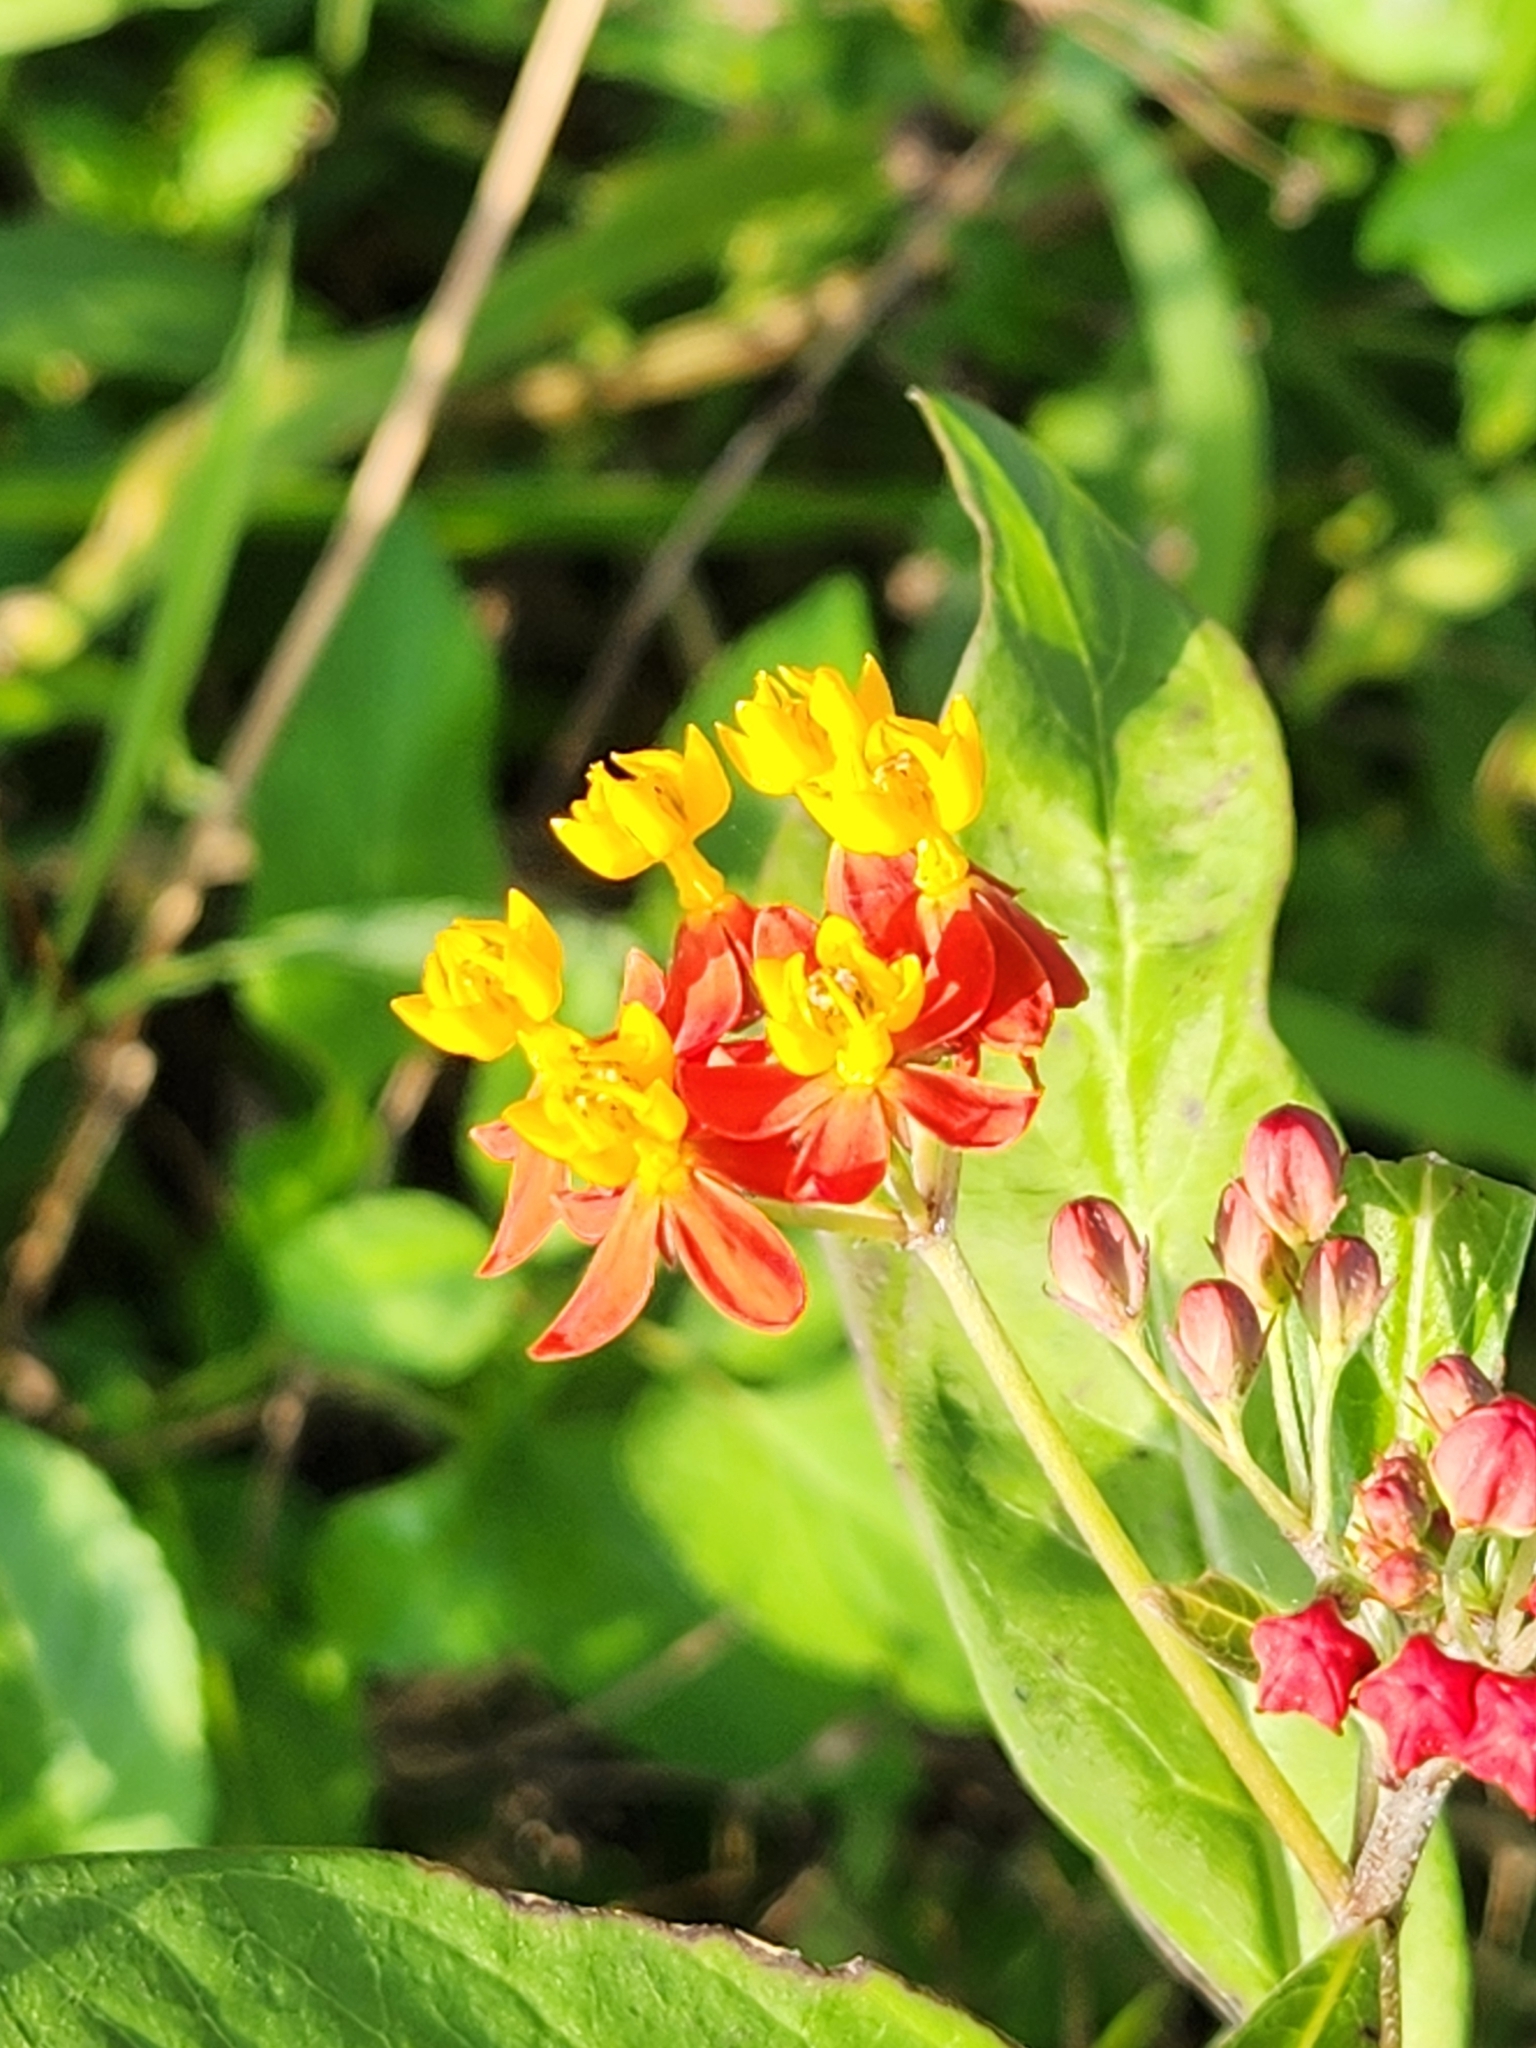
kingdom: Plantae
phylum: Tracheophyta
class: Magnoliopsida
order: Gentianales
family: Apocynaceae
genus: Asclepias
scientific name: Asclepias curassavica
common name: Bloodflower
